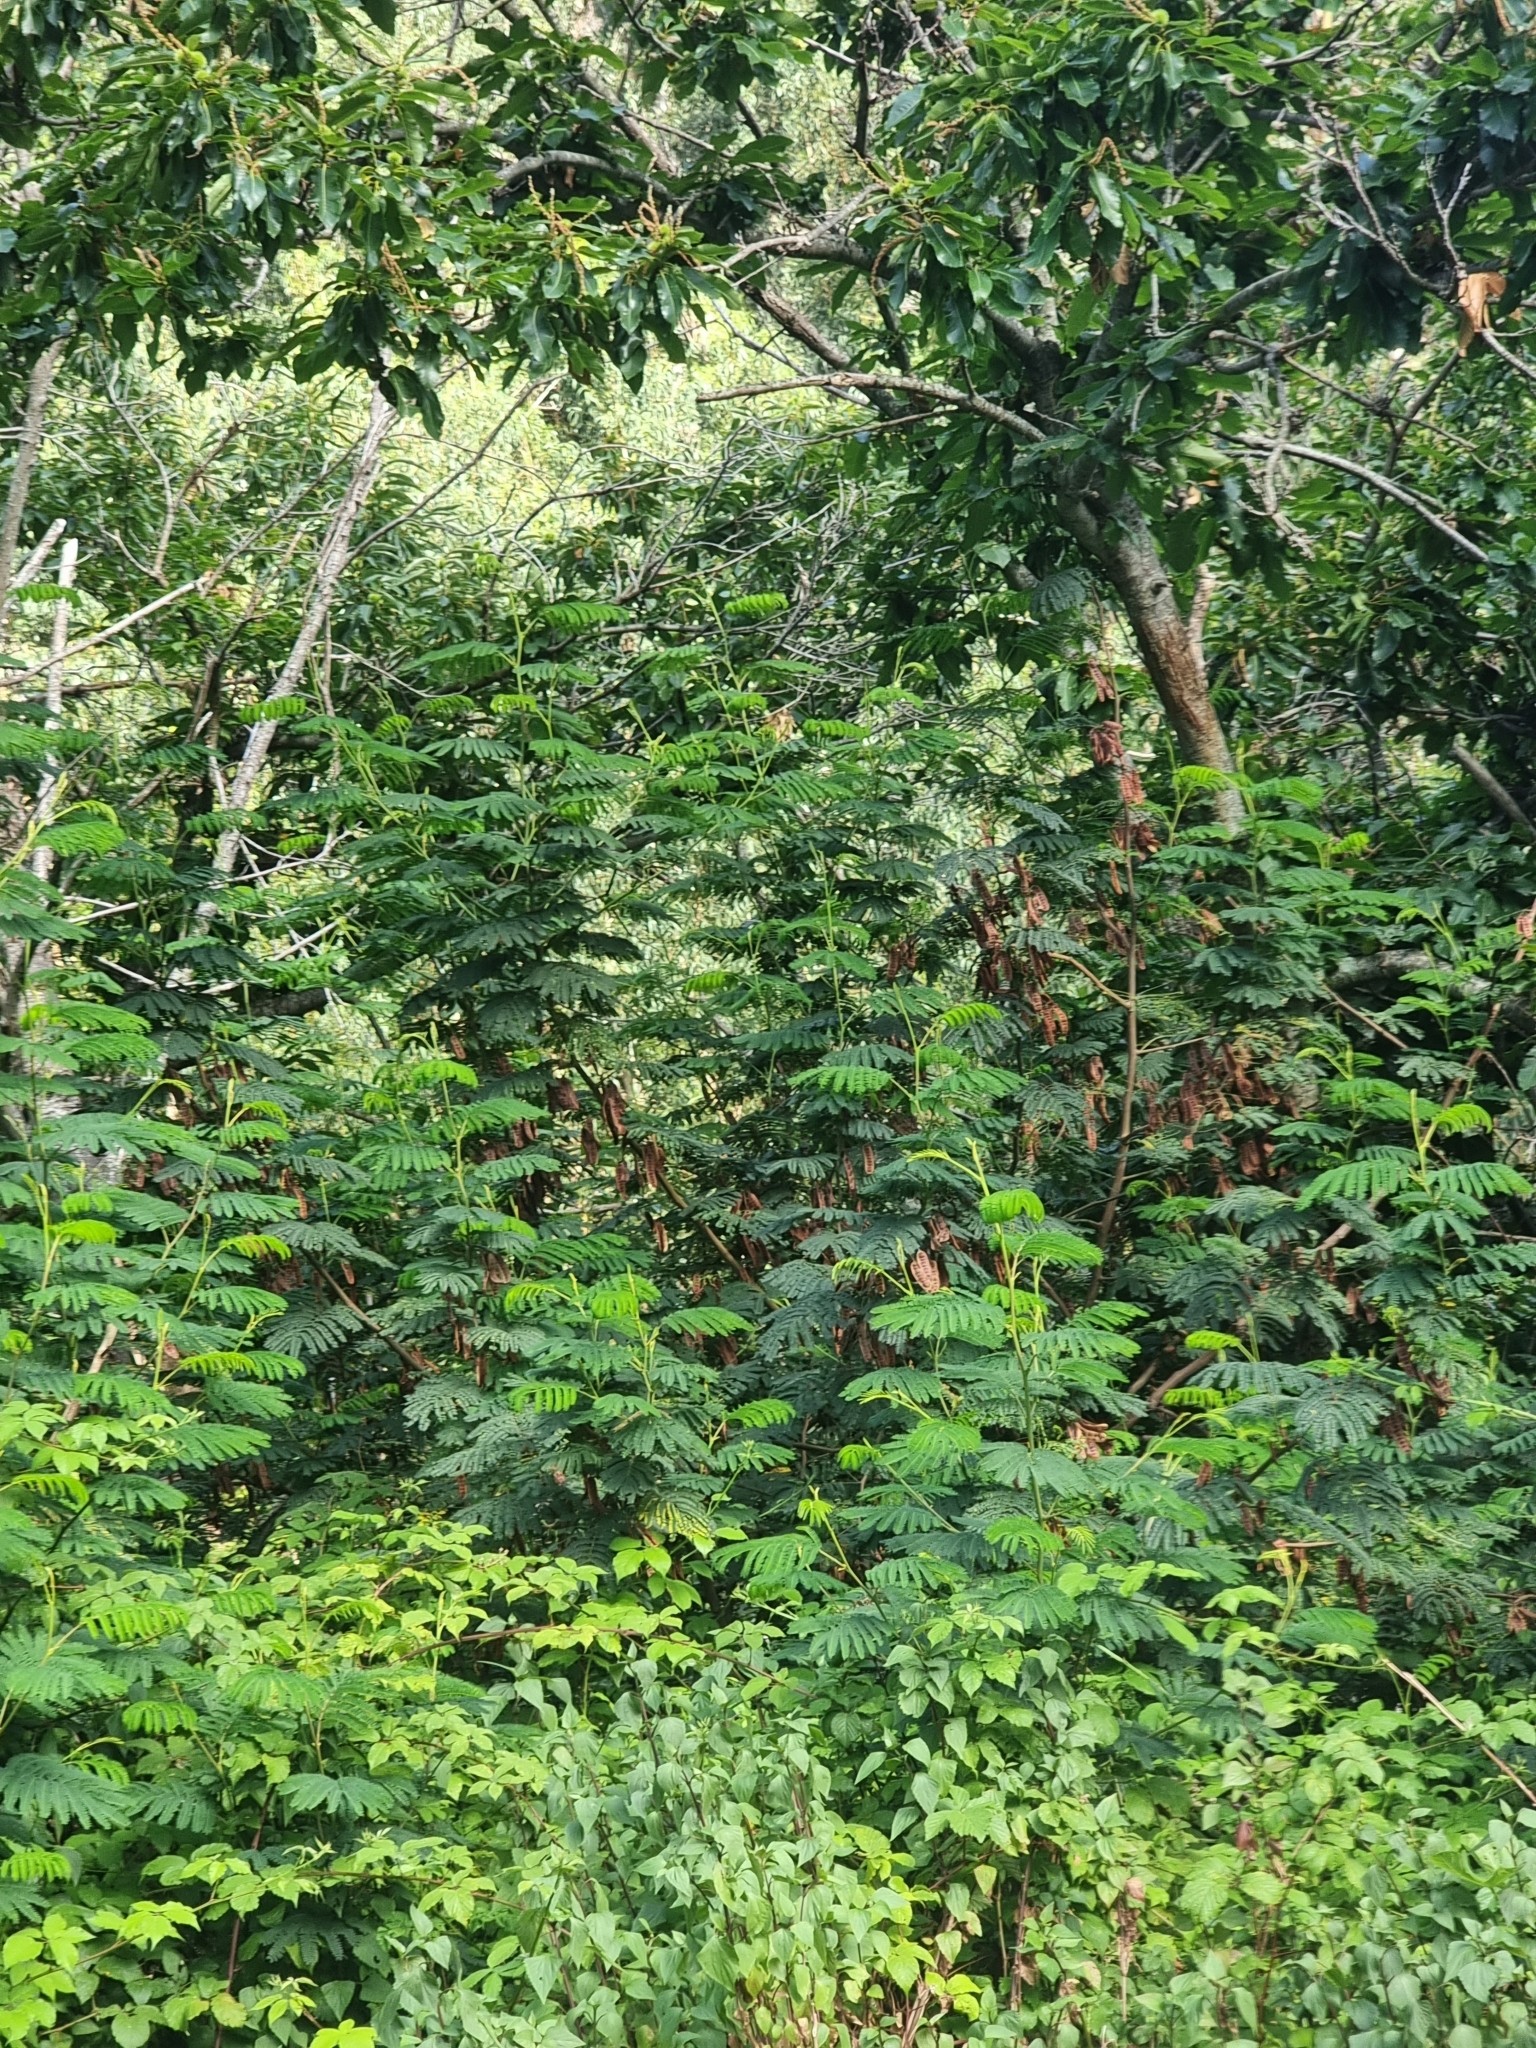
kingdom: Plantae
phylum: Tracheophyta
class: Magnoliopsida
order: Fabales
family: Fabaceae
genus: Paraserianthes
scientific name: Paraserianthes lophantha
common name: Plume albizia
